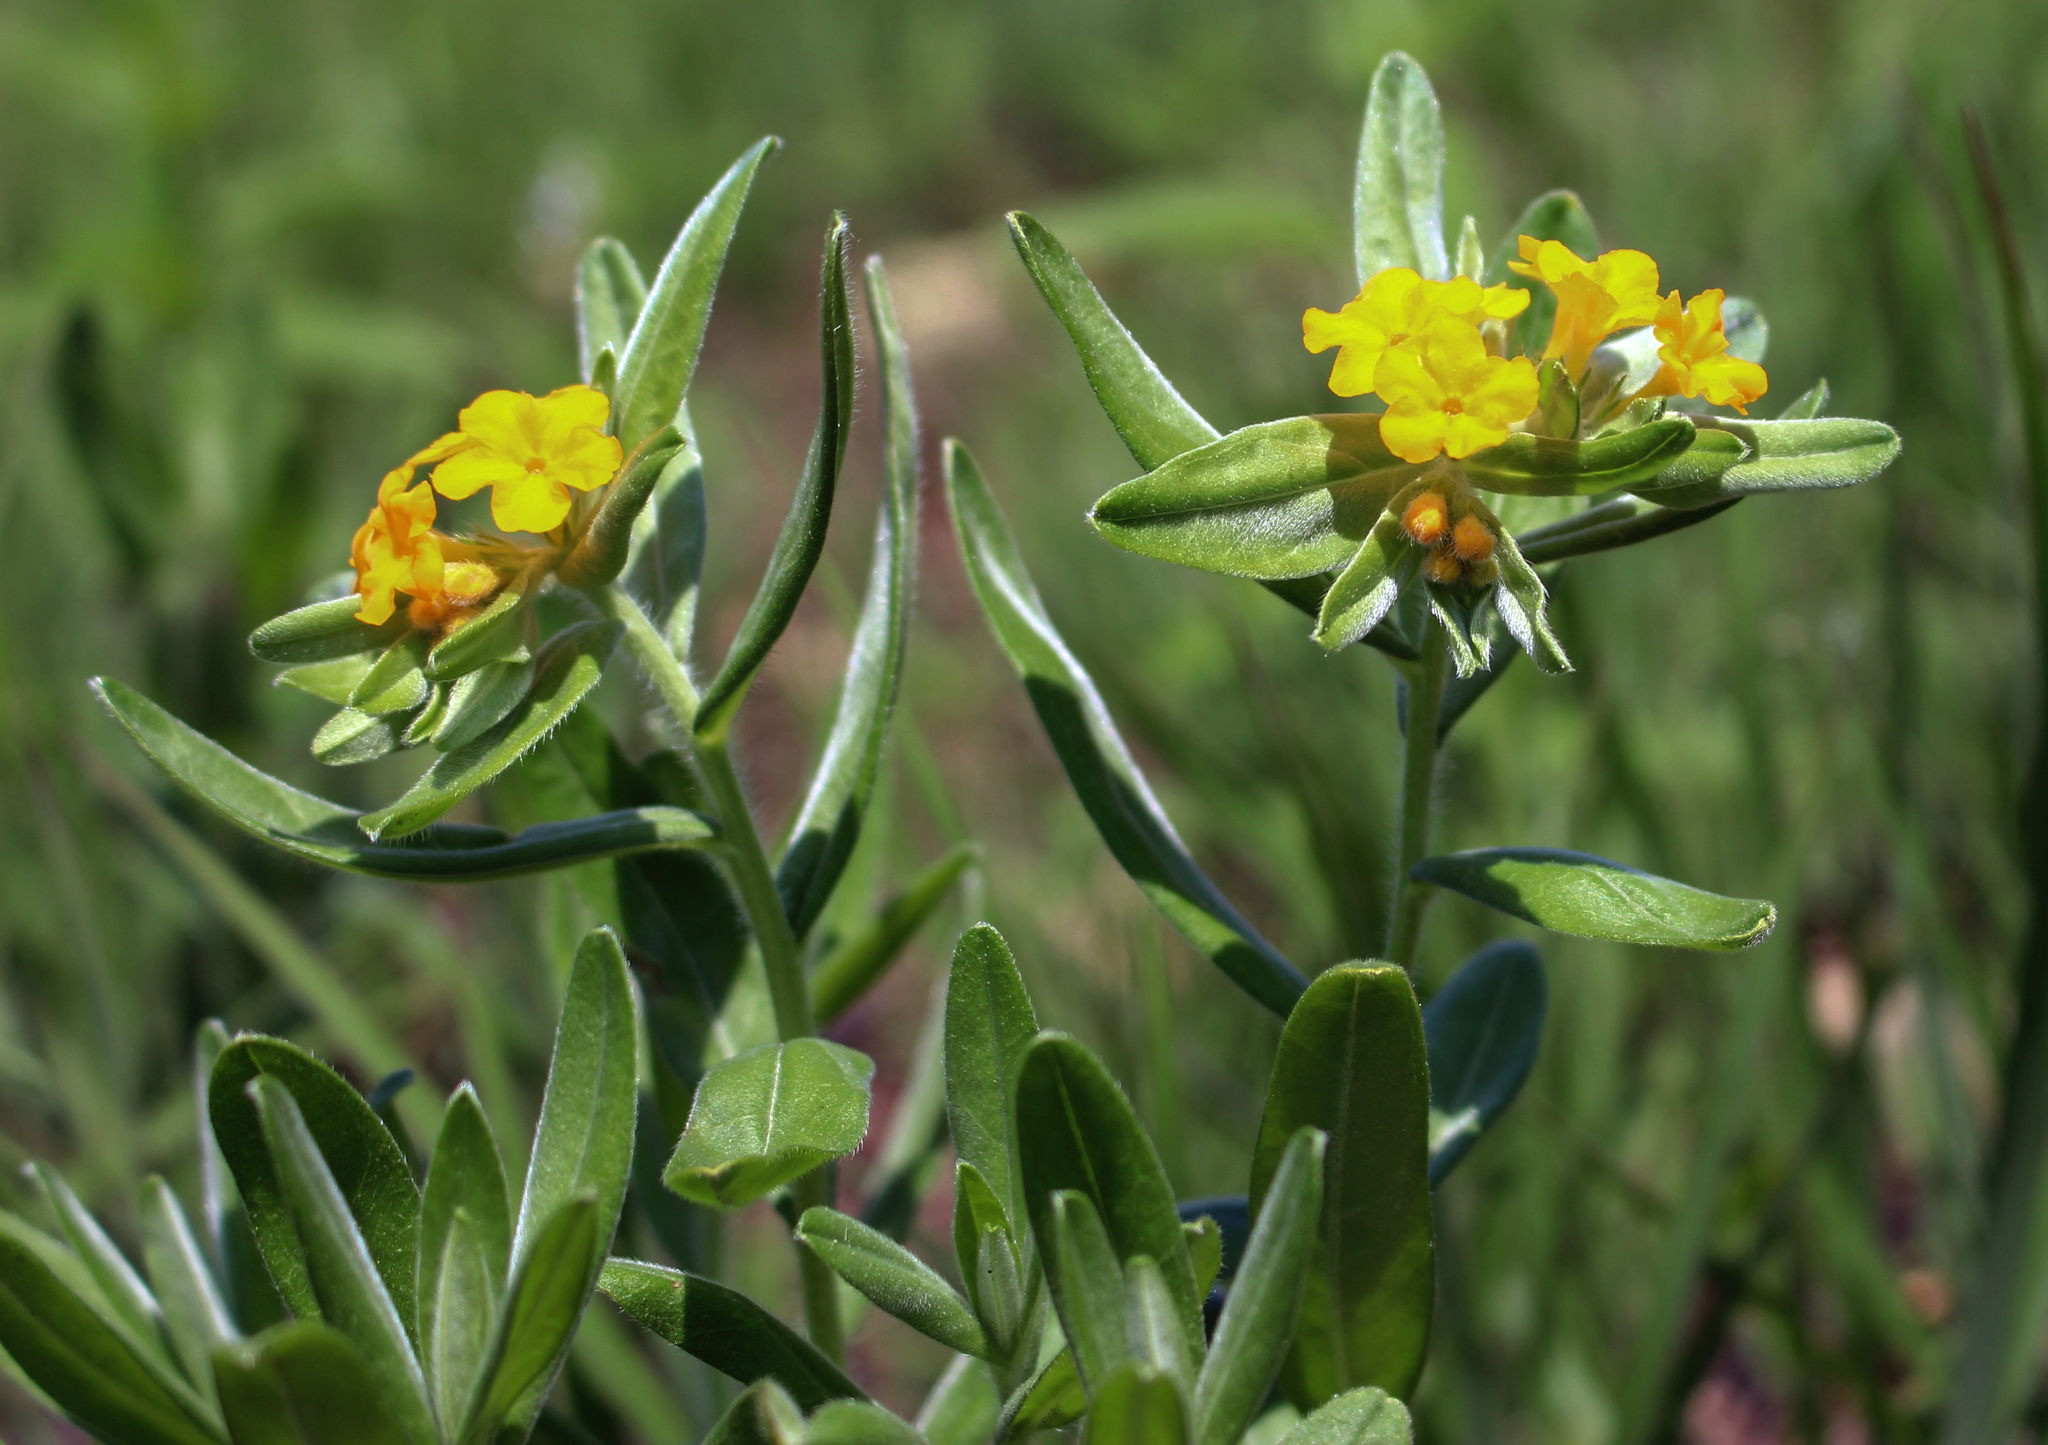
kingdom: Plantae
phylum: Tracheophyta
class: Magnoliopsida
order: Boraginales
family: Boraginaceae
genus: Lithospermum
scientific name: Lithospermum canescens
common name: Hoary puccoon
